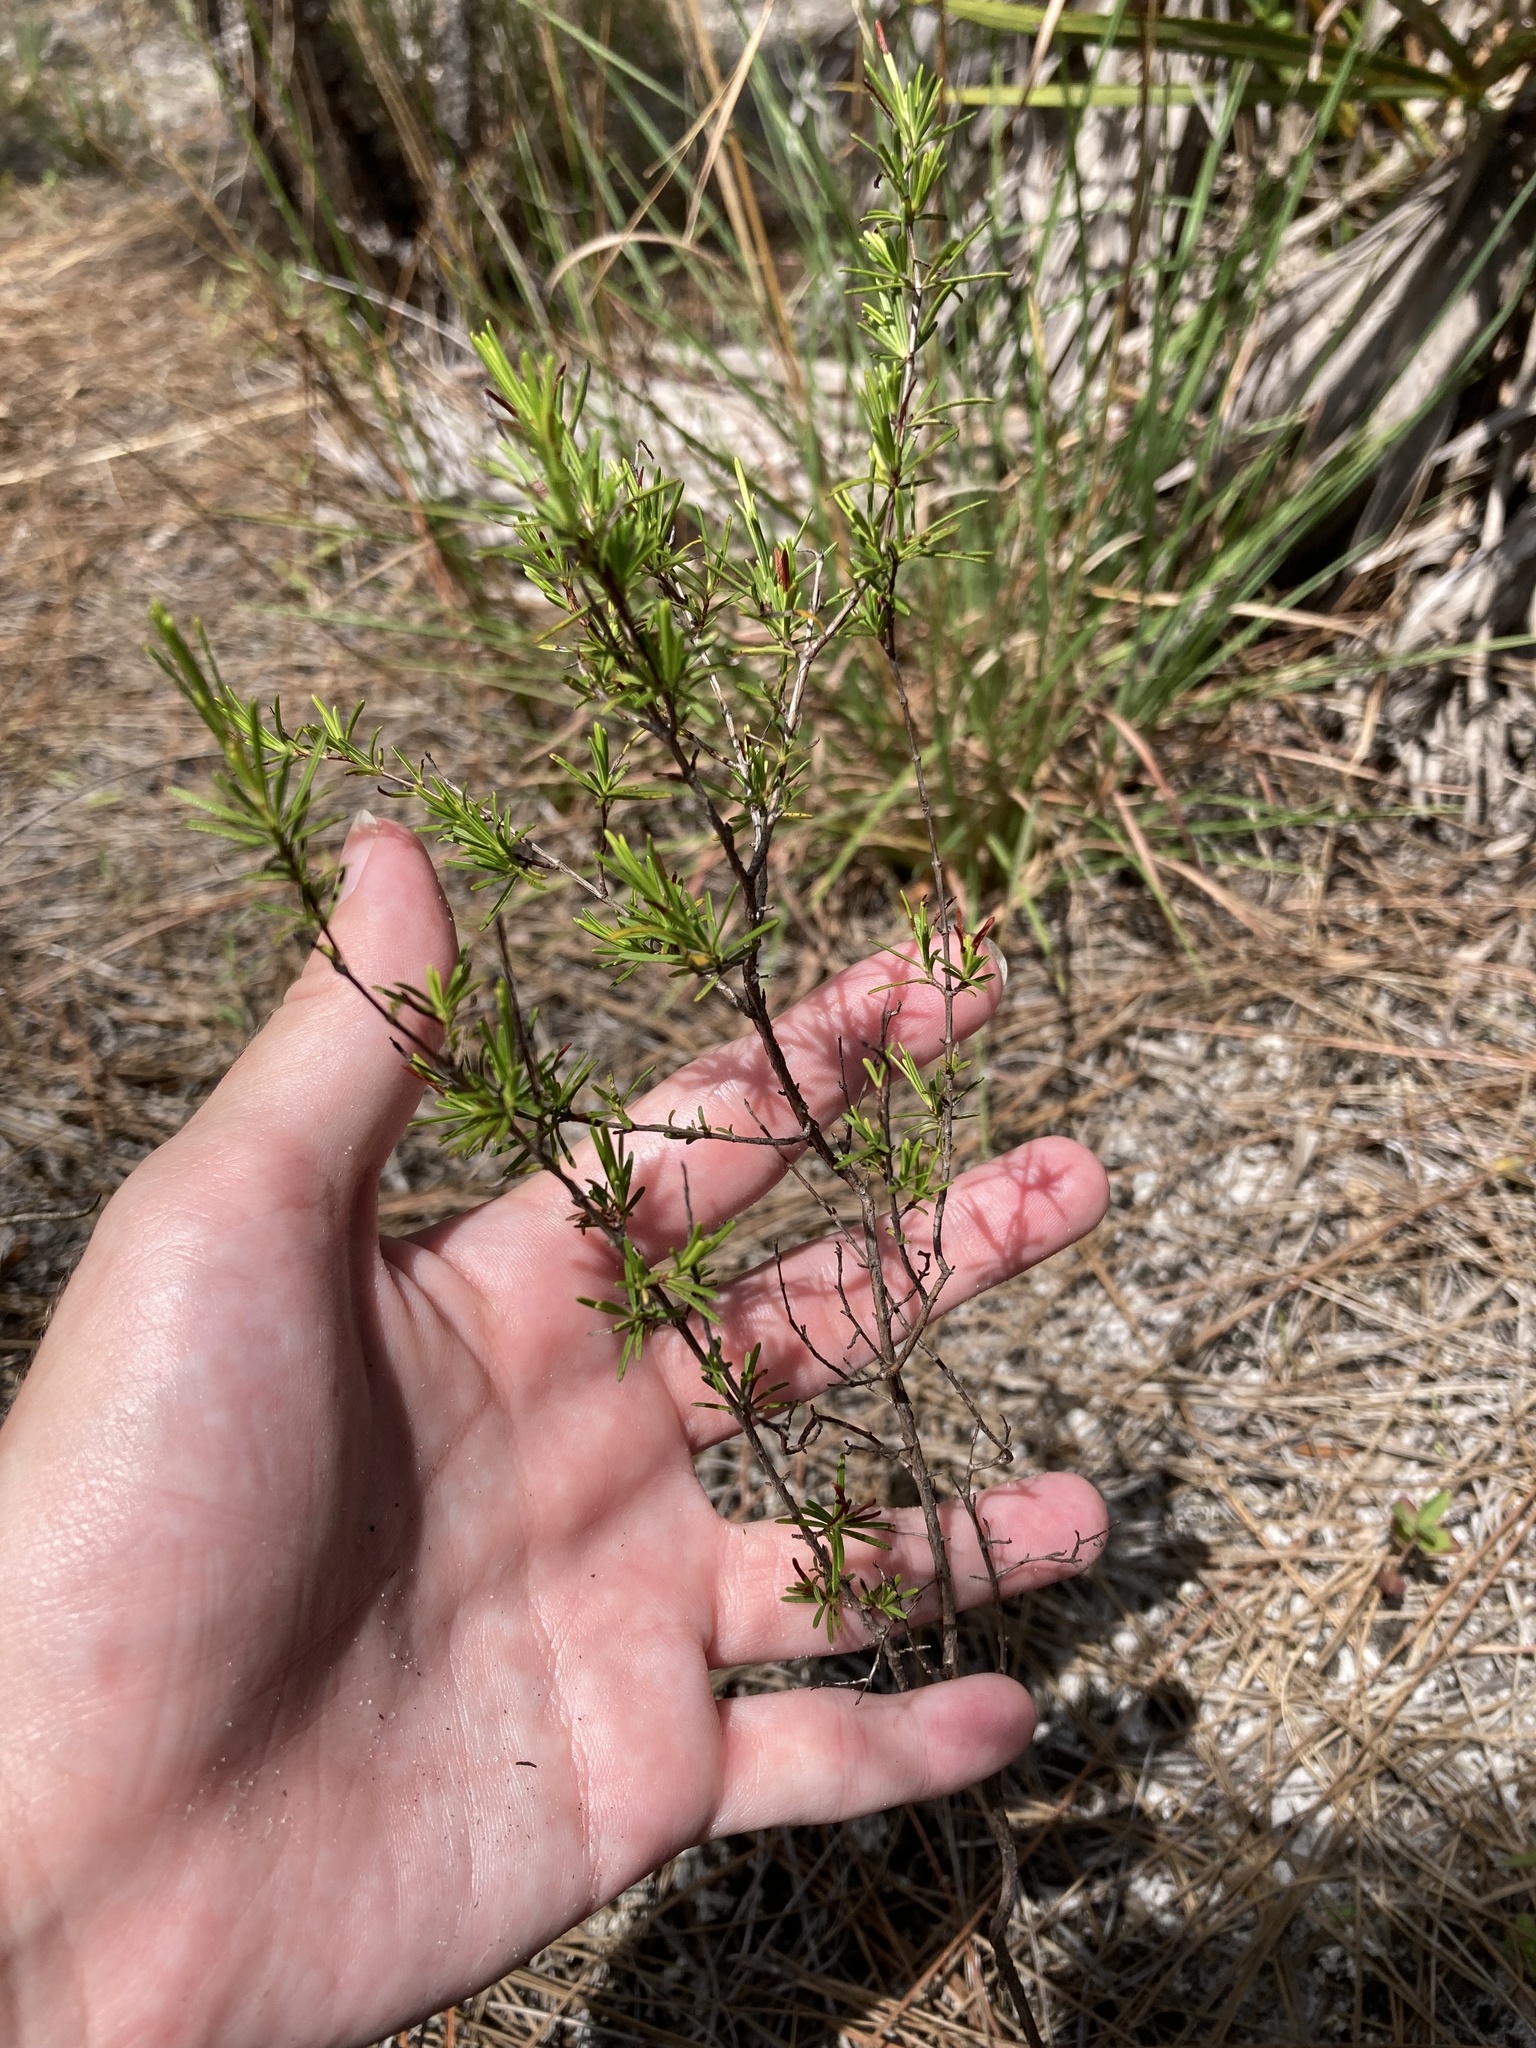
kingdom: Plantae
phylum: Tracheophyta
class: Magnoliopsida
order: Malpighiales
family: Hypericaceae
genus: Hypericum
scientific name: Hypericum fasciculatum
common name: Peelbark st. john's wort
